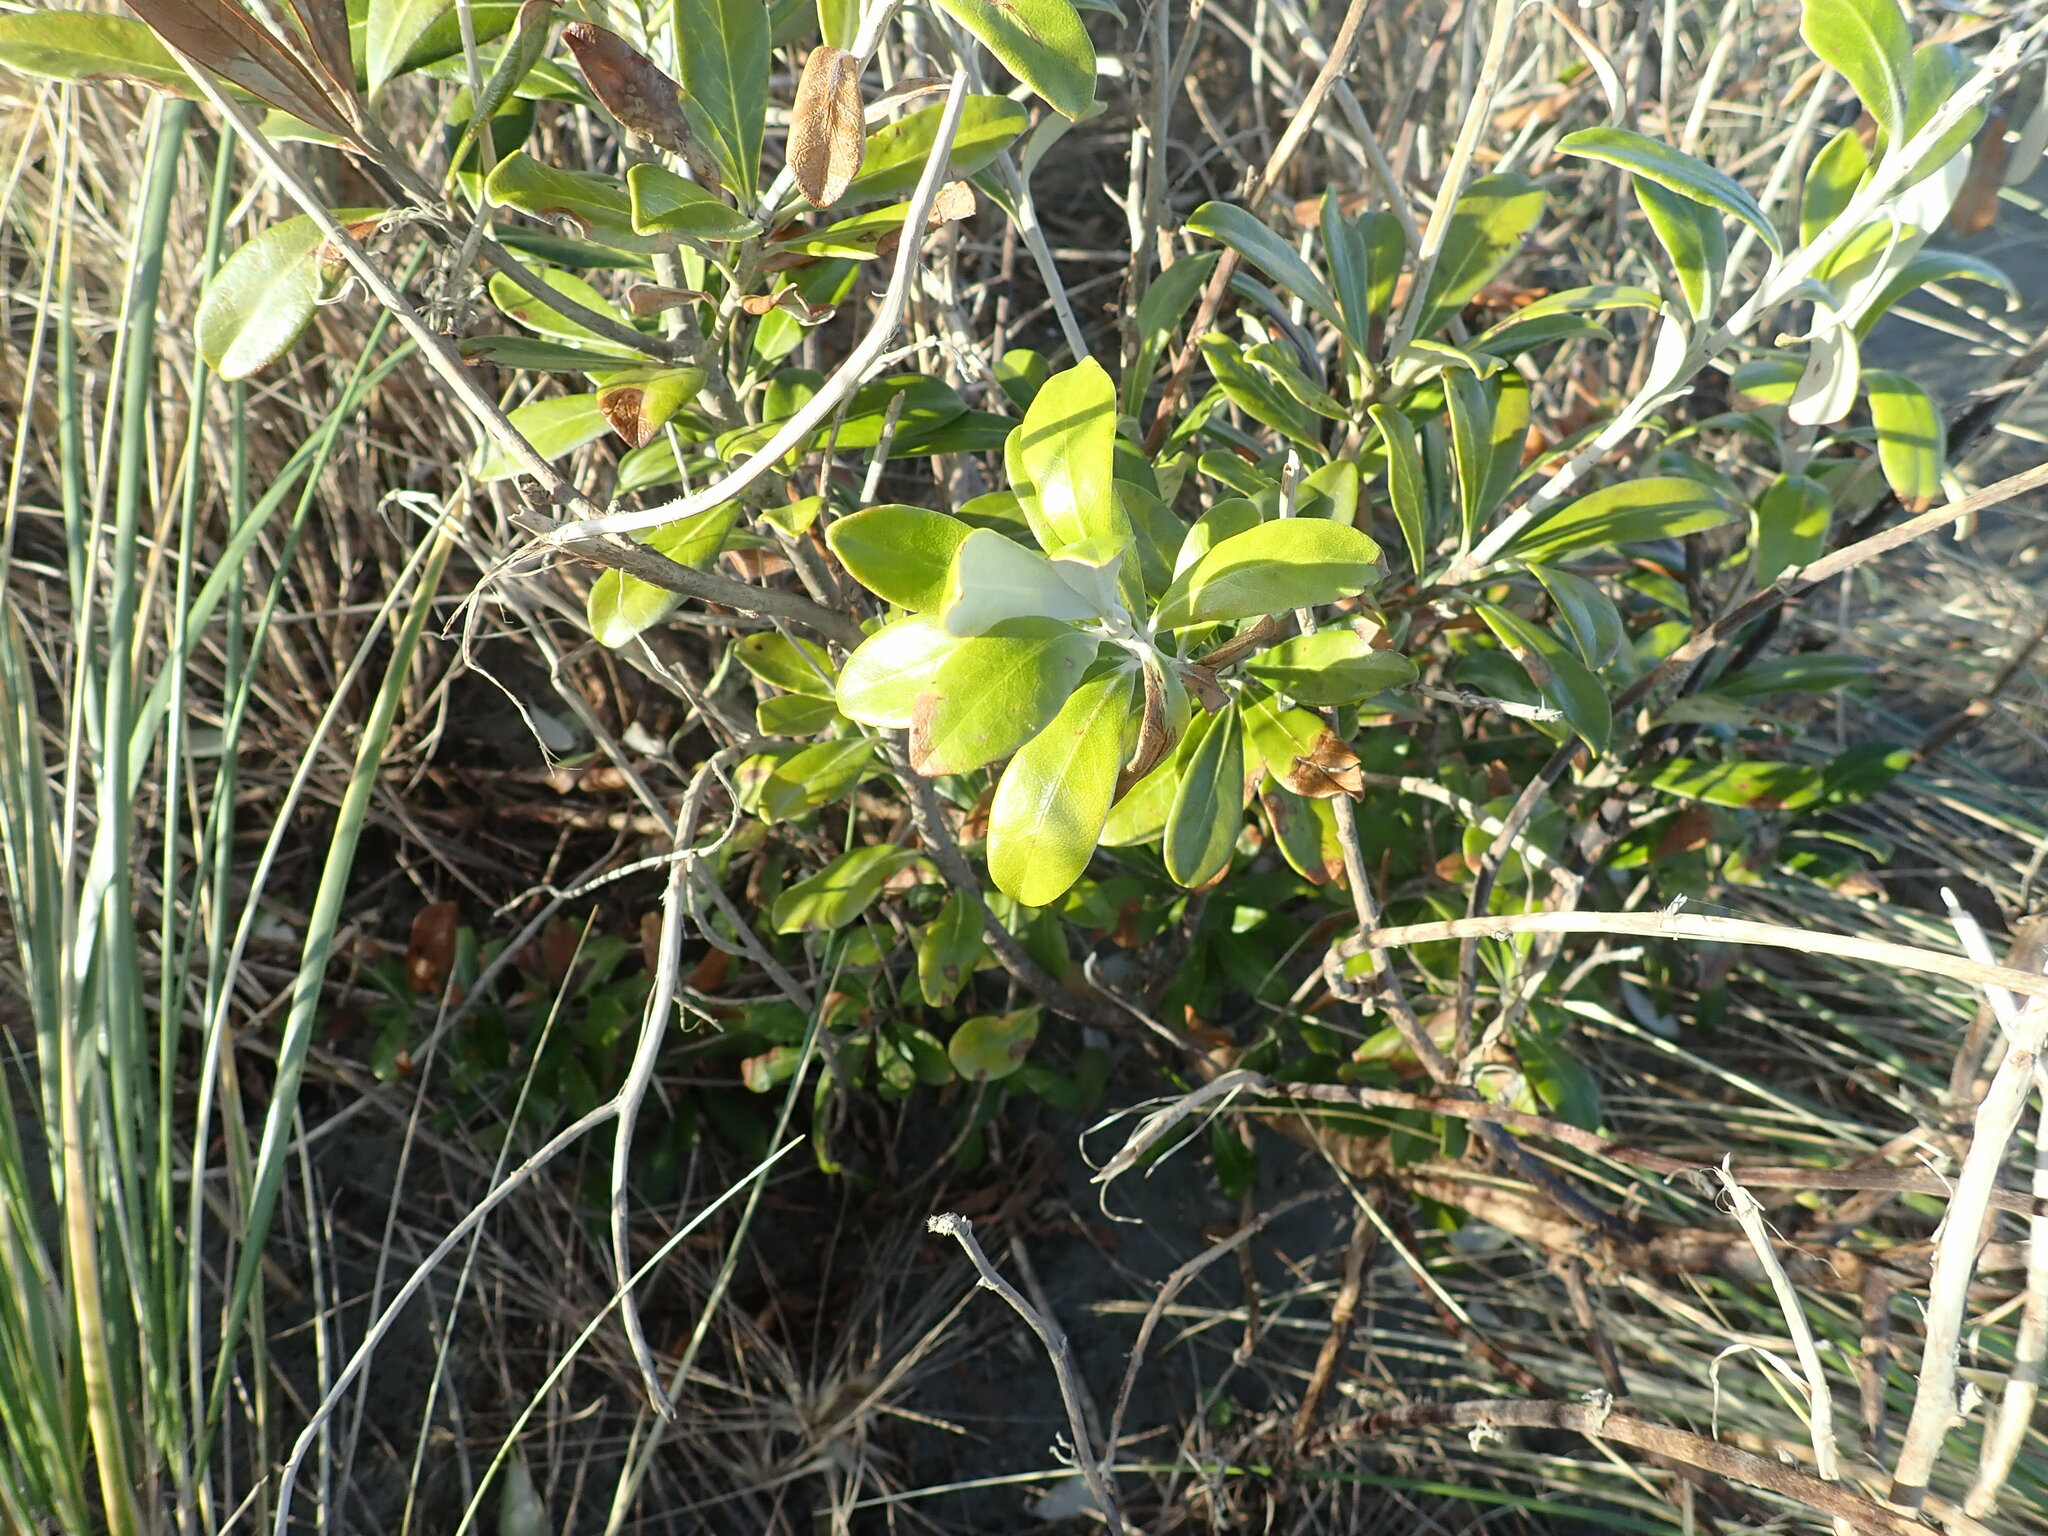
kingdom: Plantae
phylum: Tracheophyta
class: Magnoliopsida
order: Apiales
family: Pittosporaceae
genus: Pittosporum
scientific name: Pittosporum crassifolium
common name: Karo
